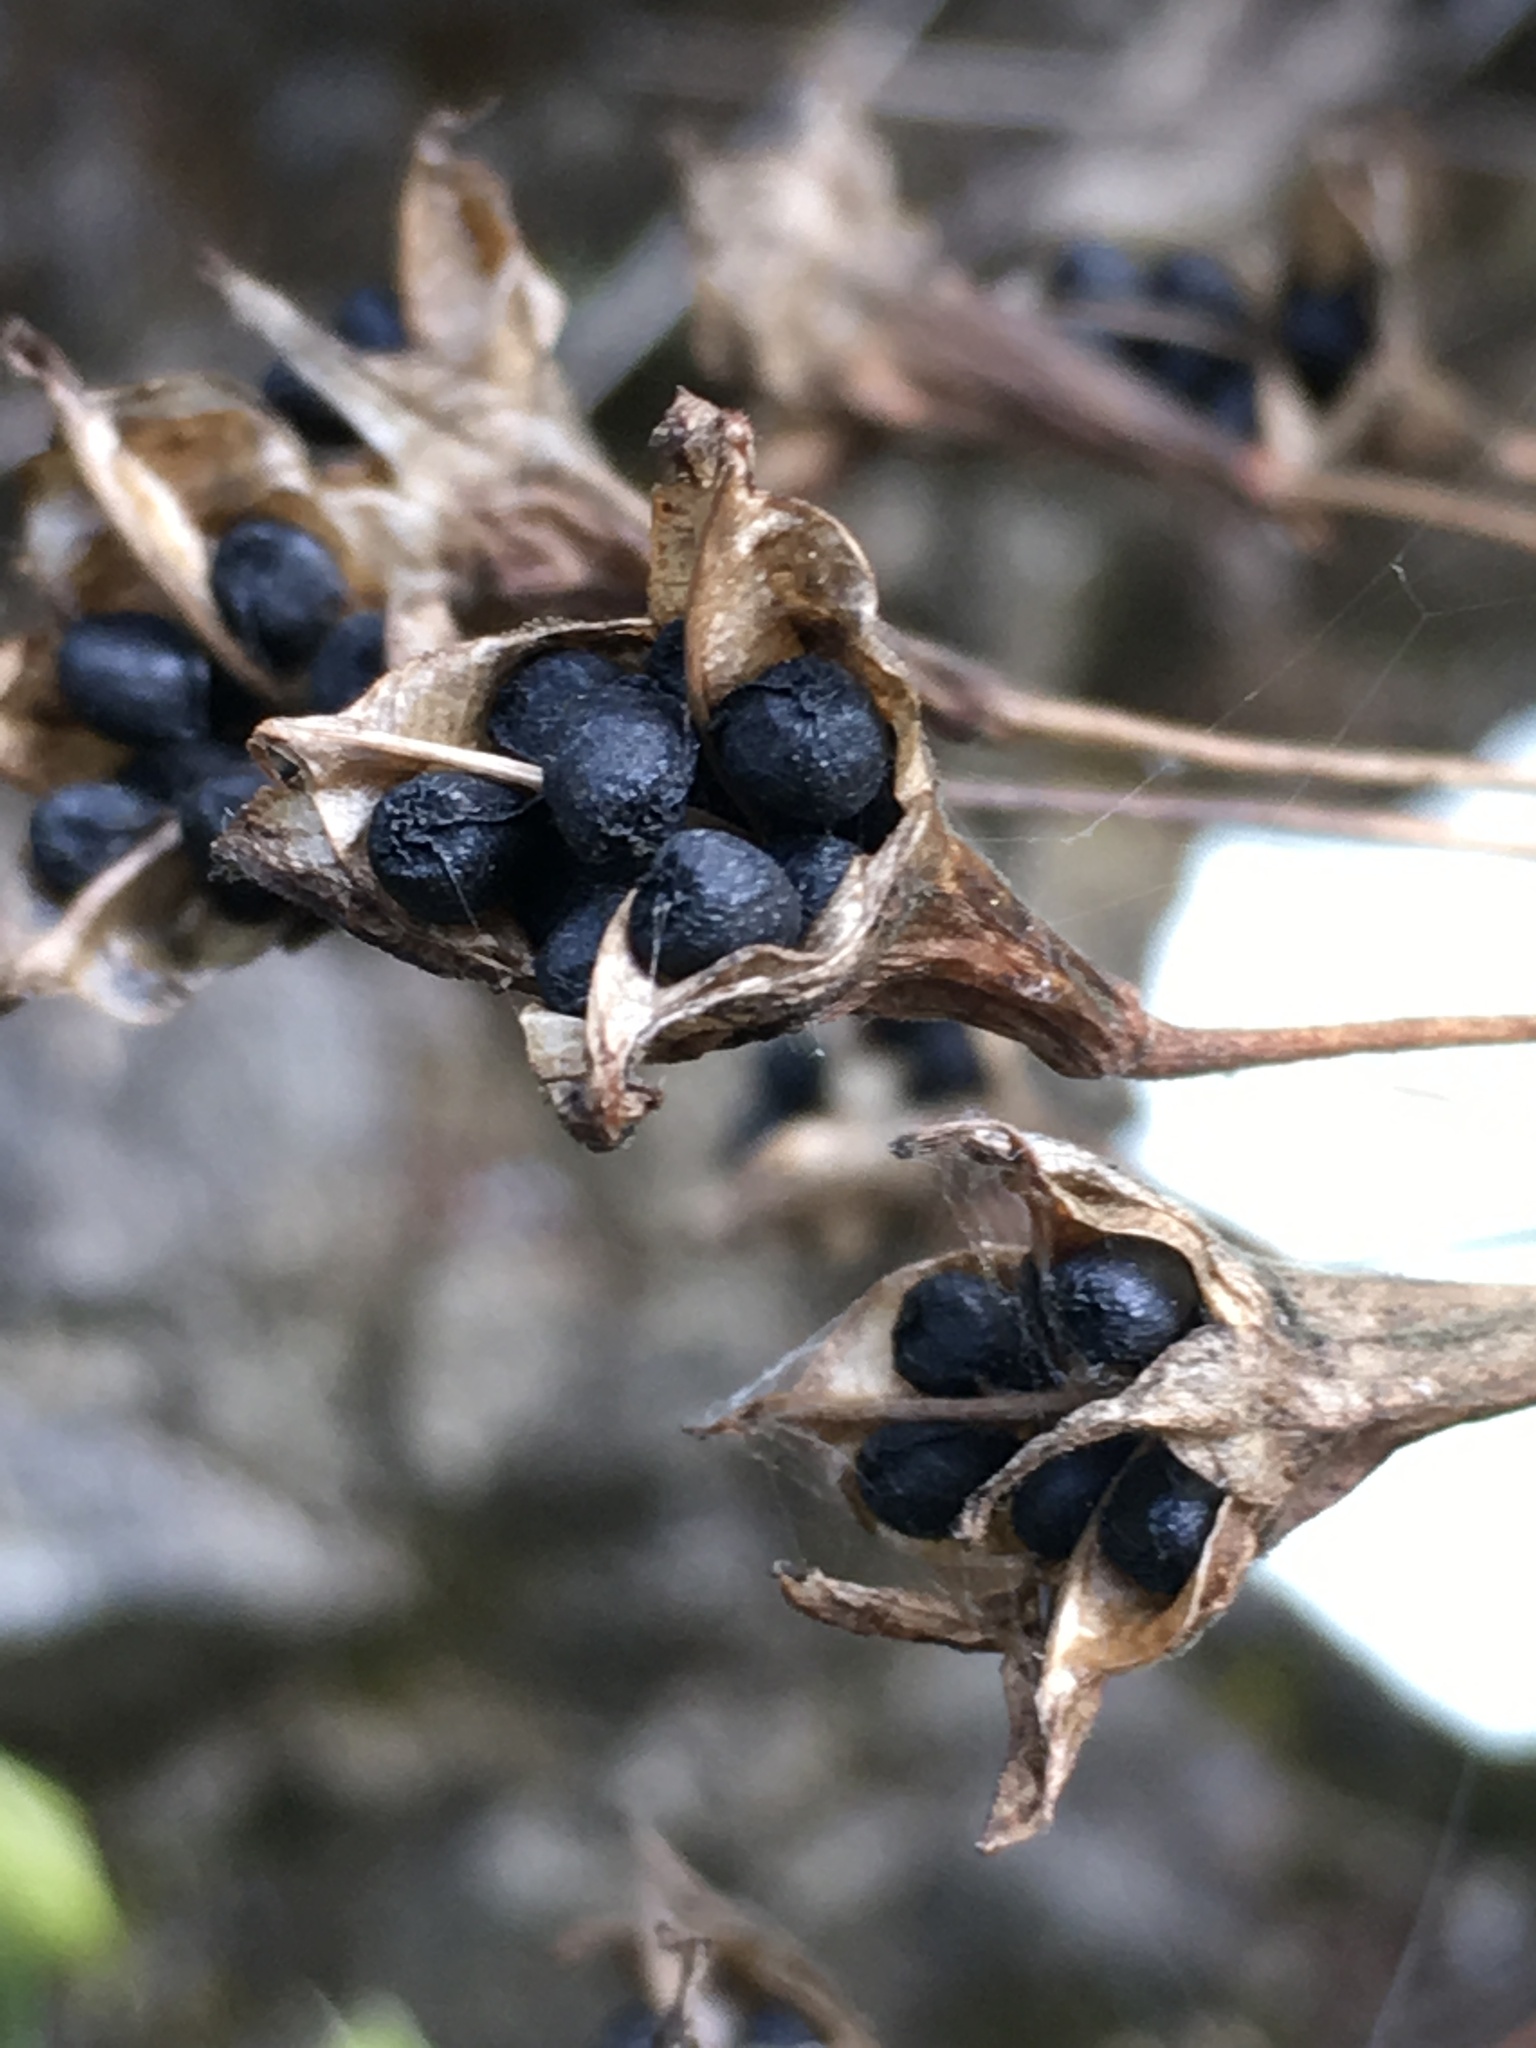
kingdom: Plantae
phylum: Tracheophyta
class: Liliopsida
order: Asparagales
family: Asparagaceae
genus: Triteleia
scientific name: Triteleia clementina
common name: San clemente island triteleia
